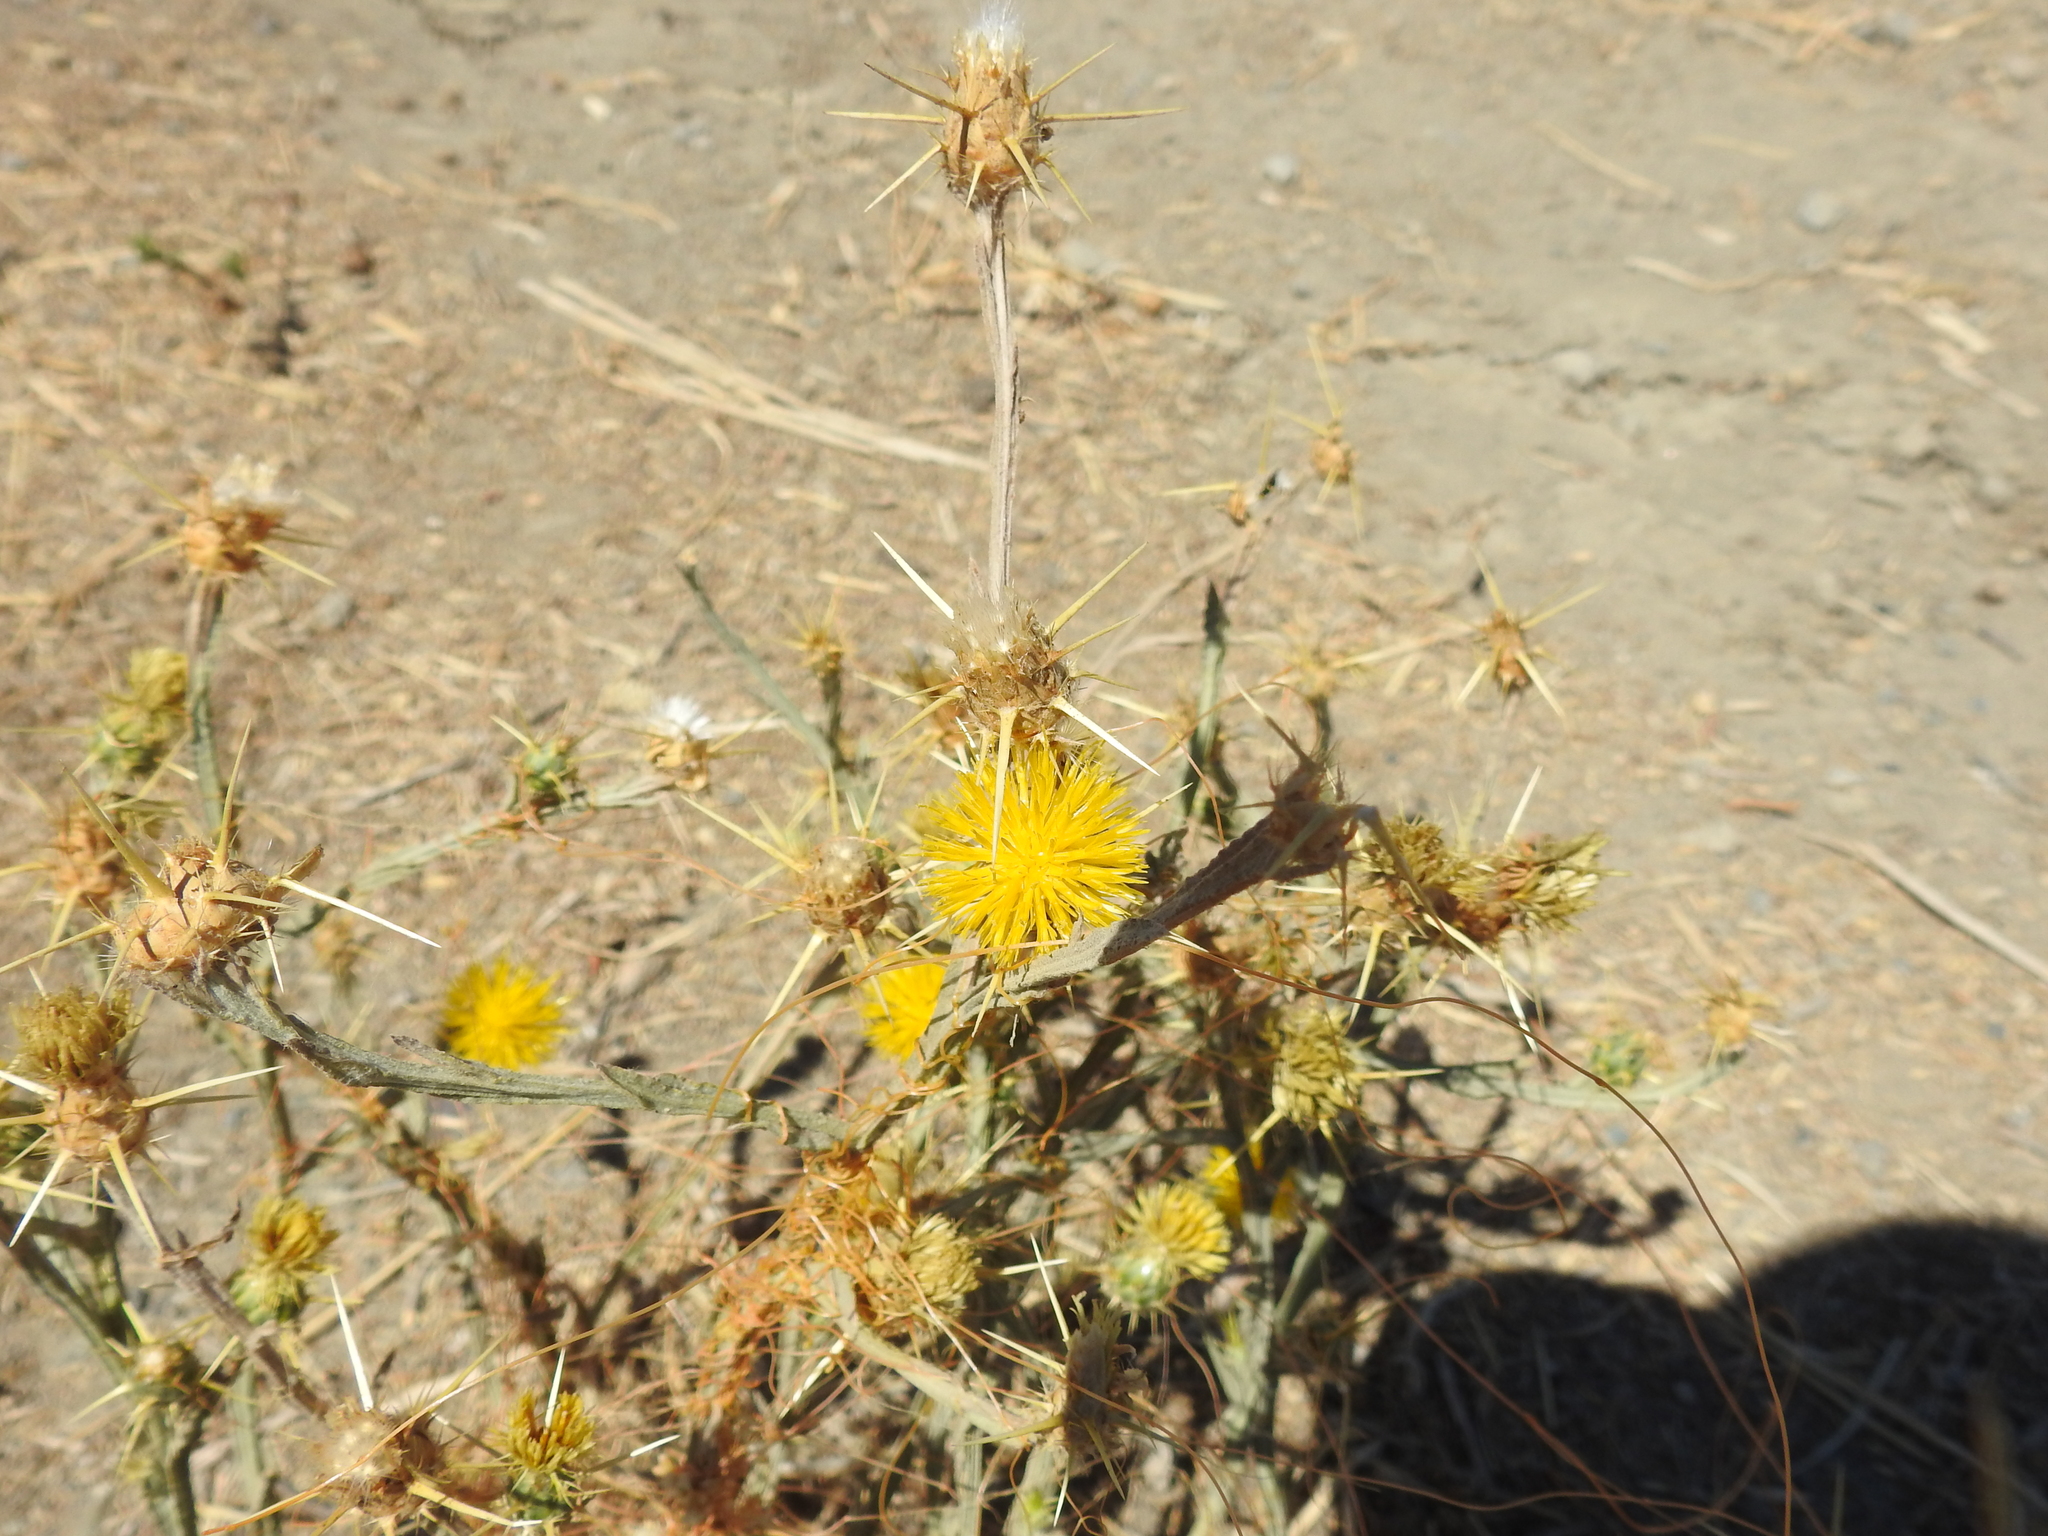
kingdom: Plantae
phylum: Tracheophyta
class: Magnoliopsida
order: Asterales
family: Asteraceae
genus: Centaurea
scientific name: Centaurea solstitialis
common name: Yellow star-thistle
